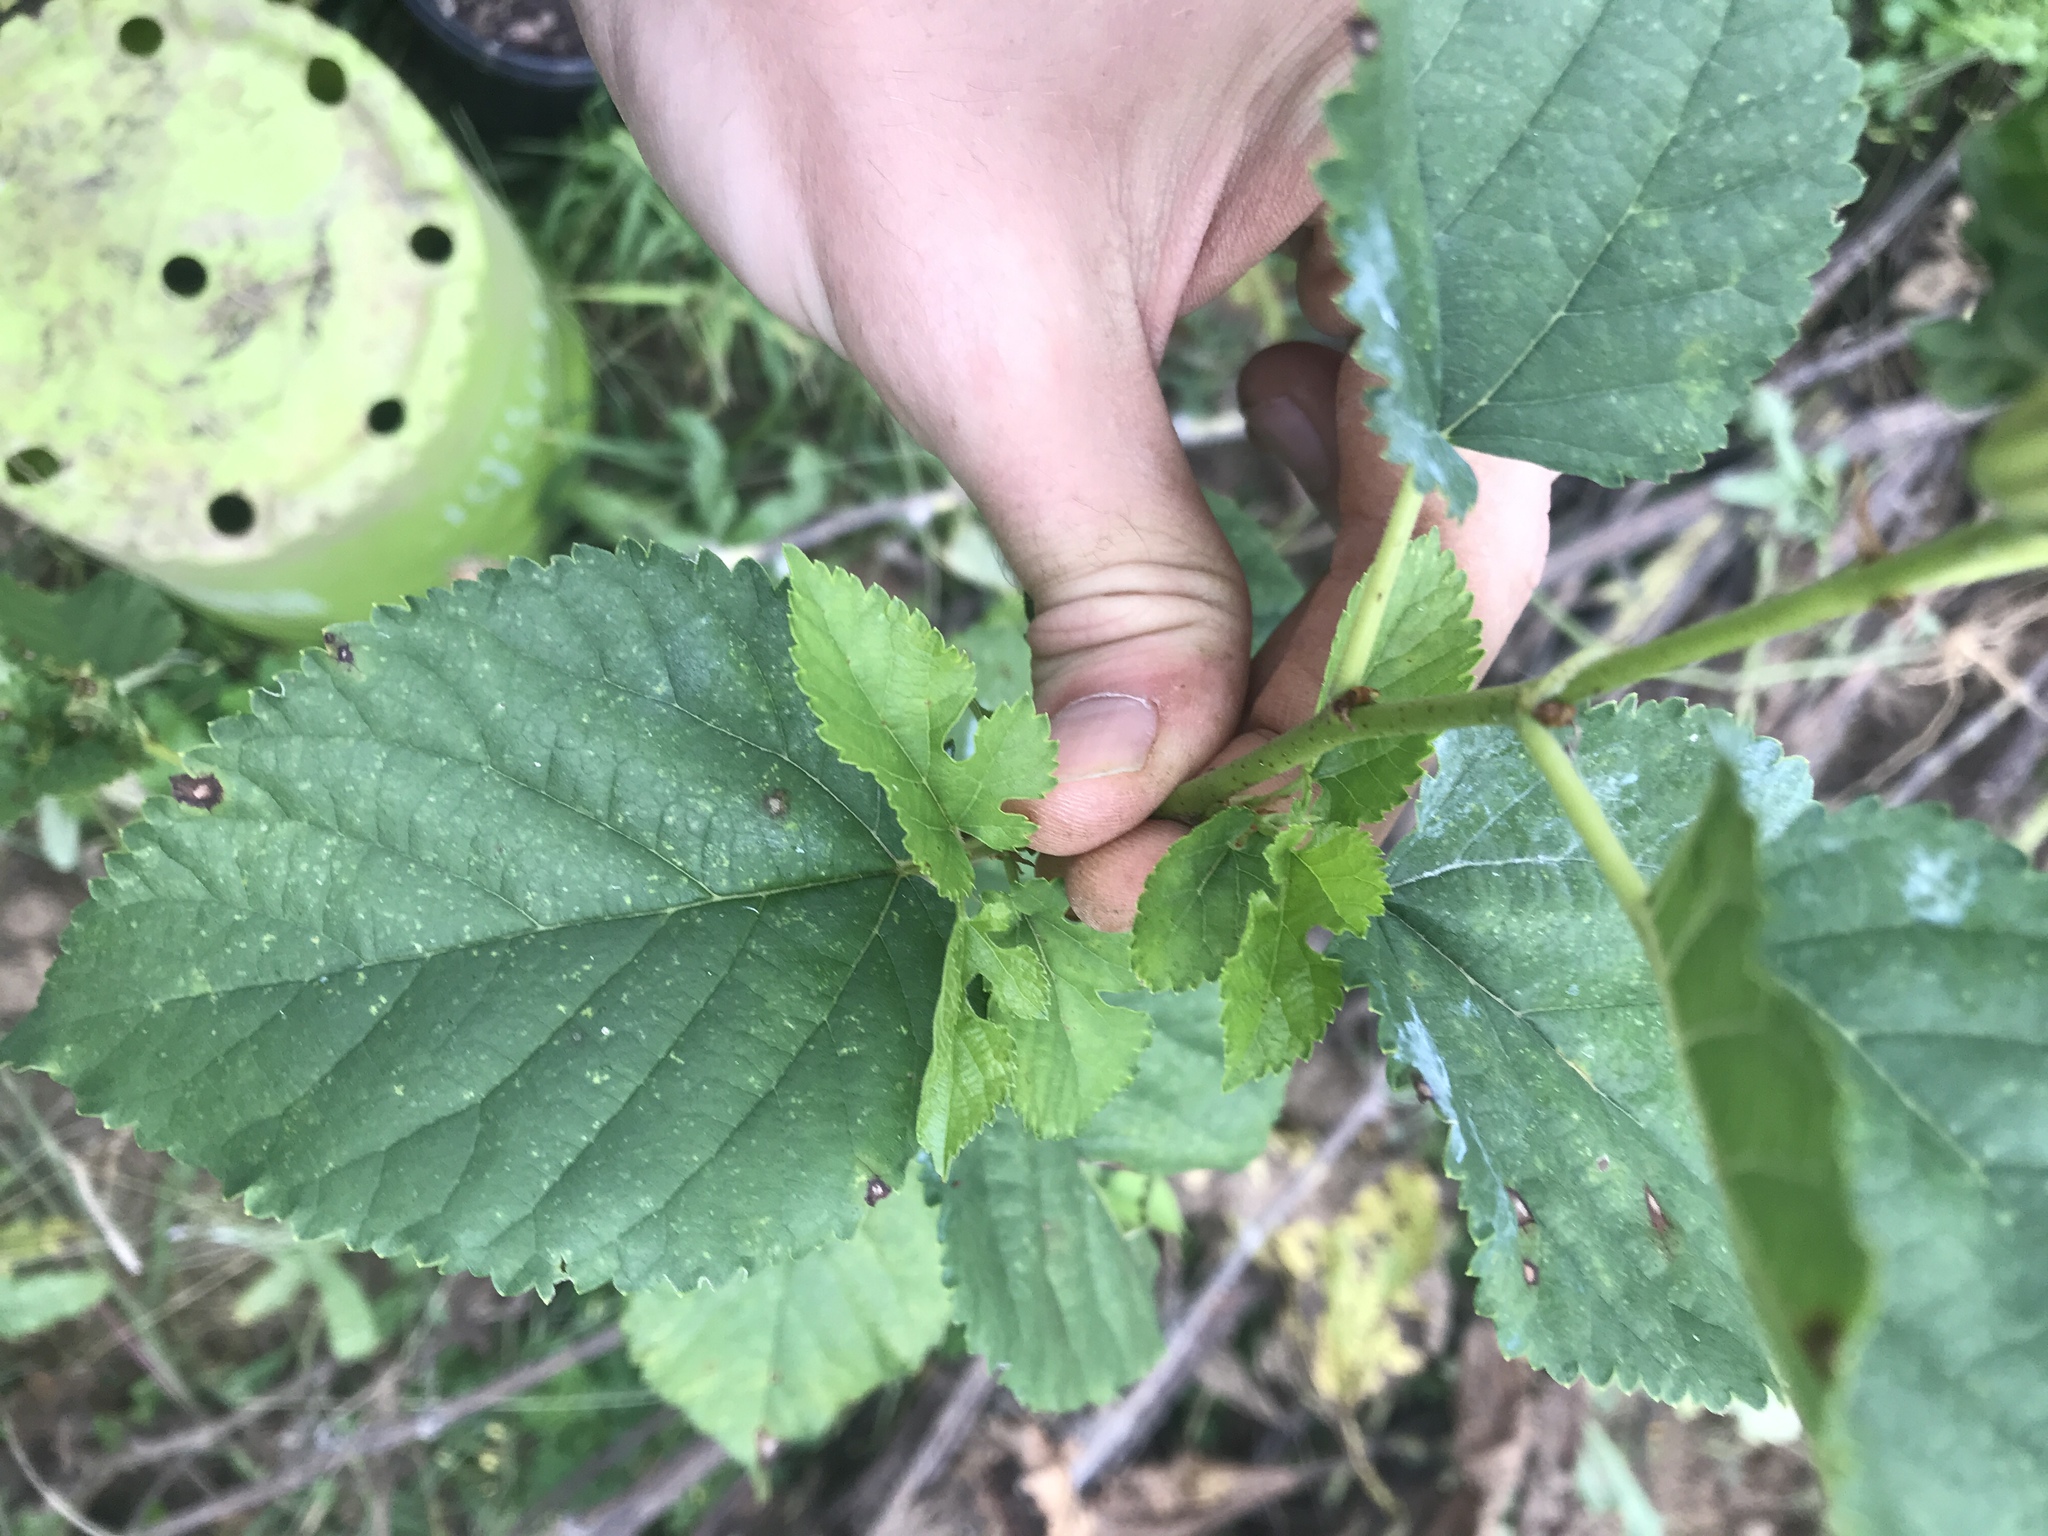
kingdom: Plantae
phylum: Tracheophyta
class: Magnoliopsida
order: Rosales
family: Moraceae
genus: Morus
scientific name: Morus alba
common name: White mulberry
